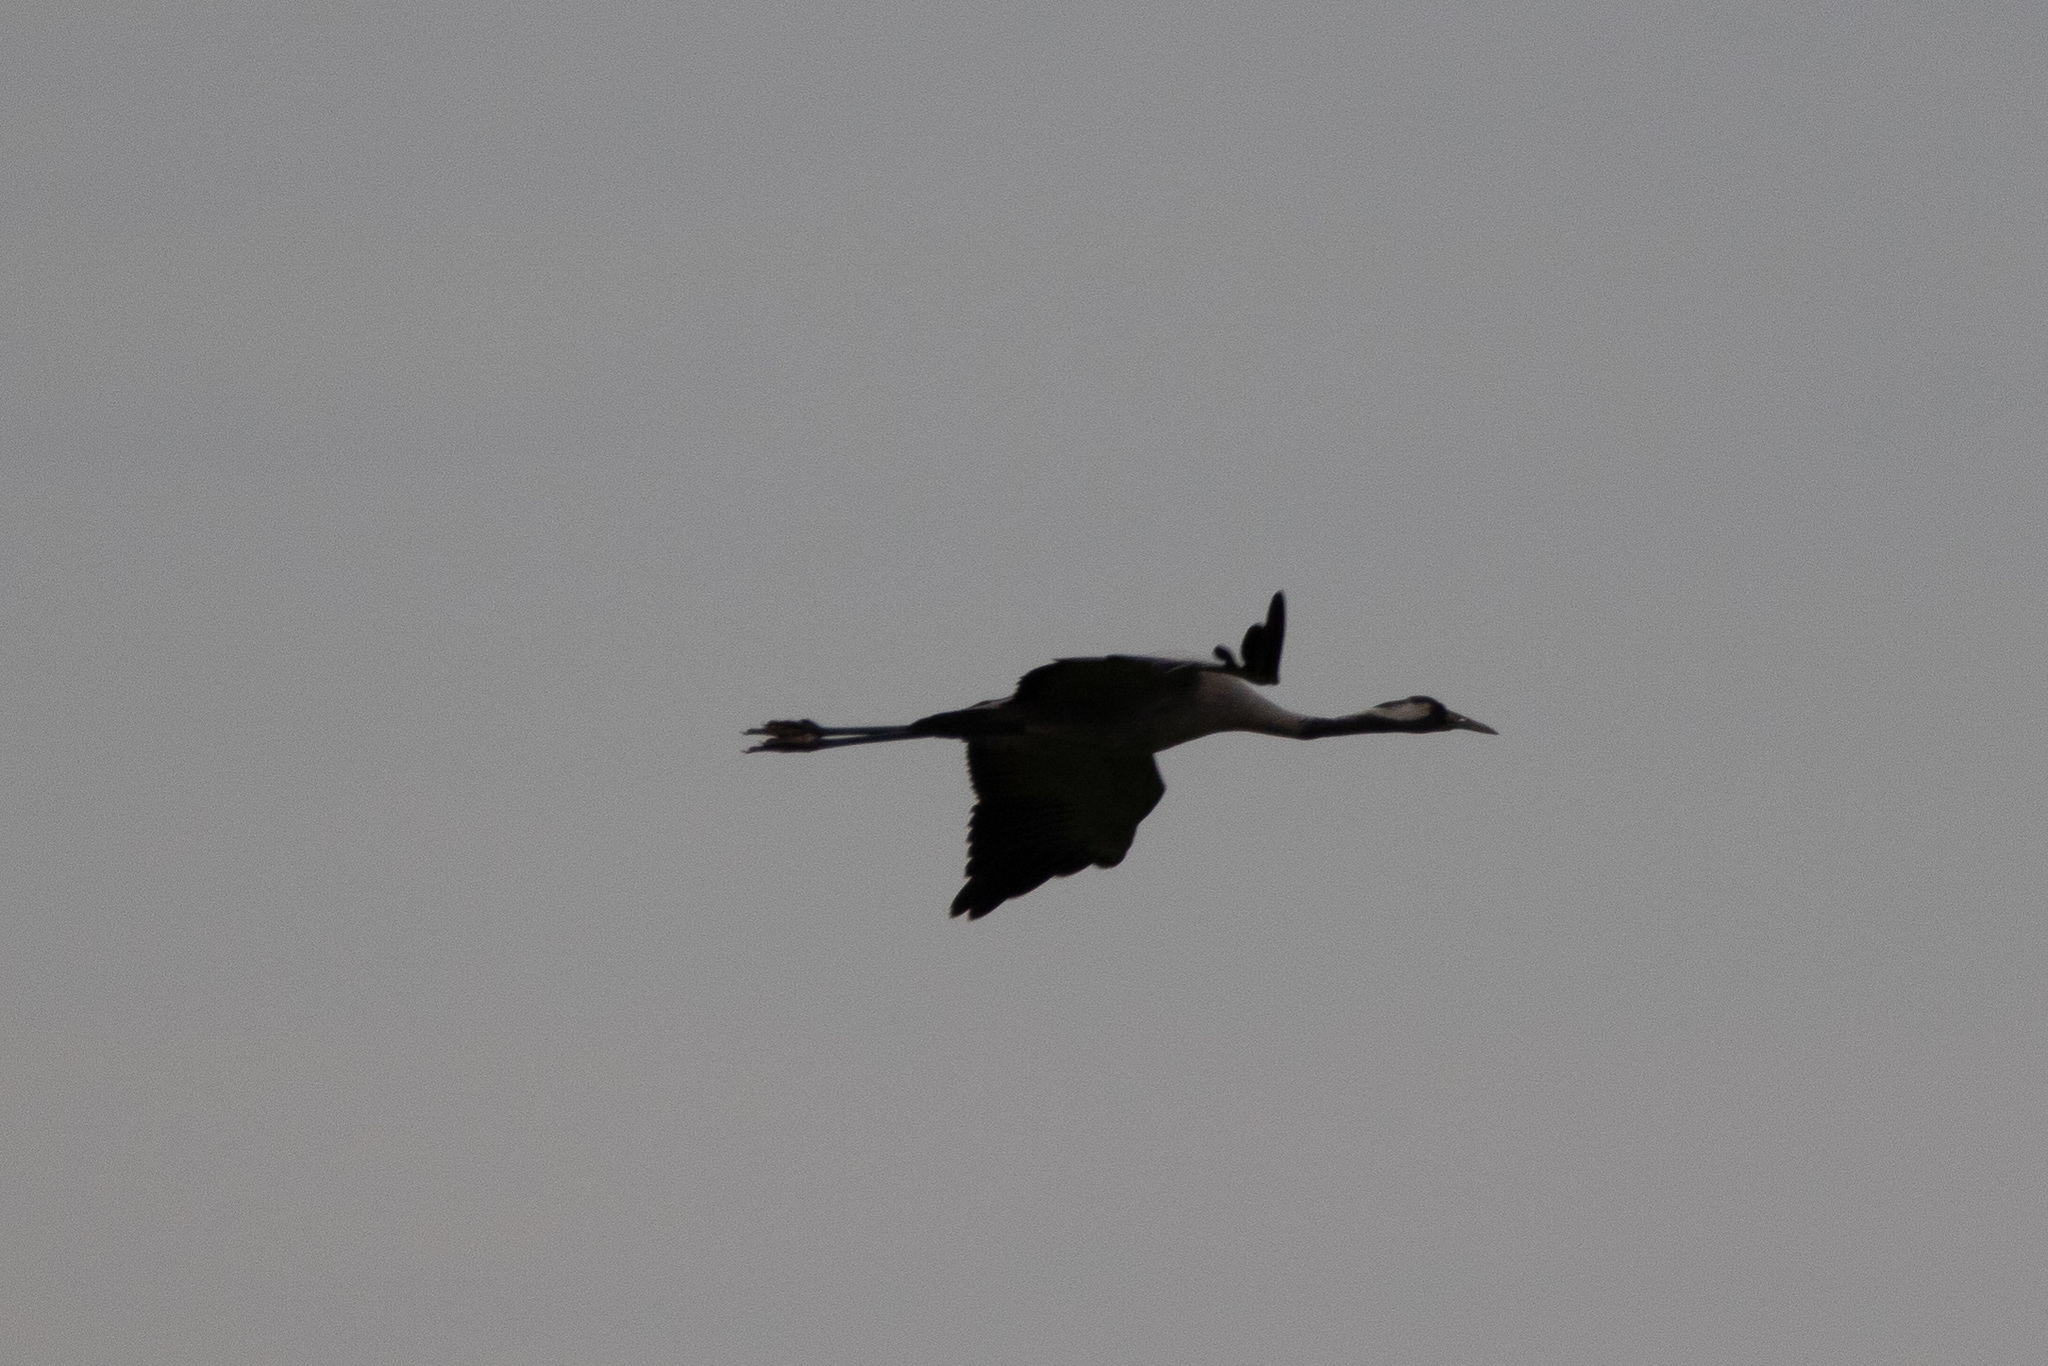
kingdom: Animalia
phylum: Chordata
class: Aves
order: Gruiformes
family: Gruidae
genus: Grus
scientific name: Grus grus
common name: Common crane
